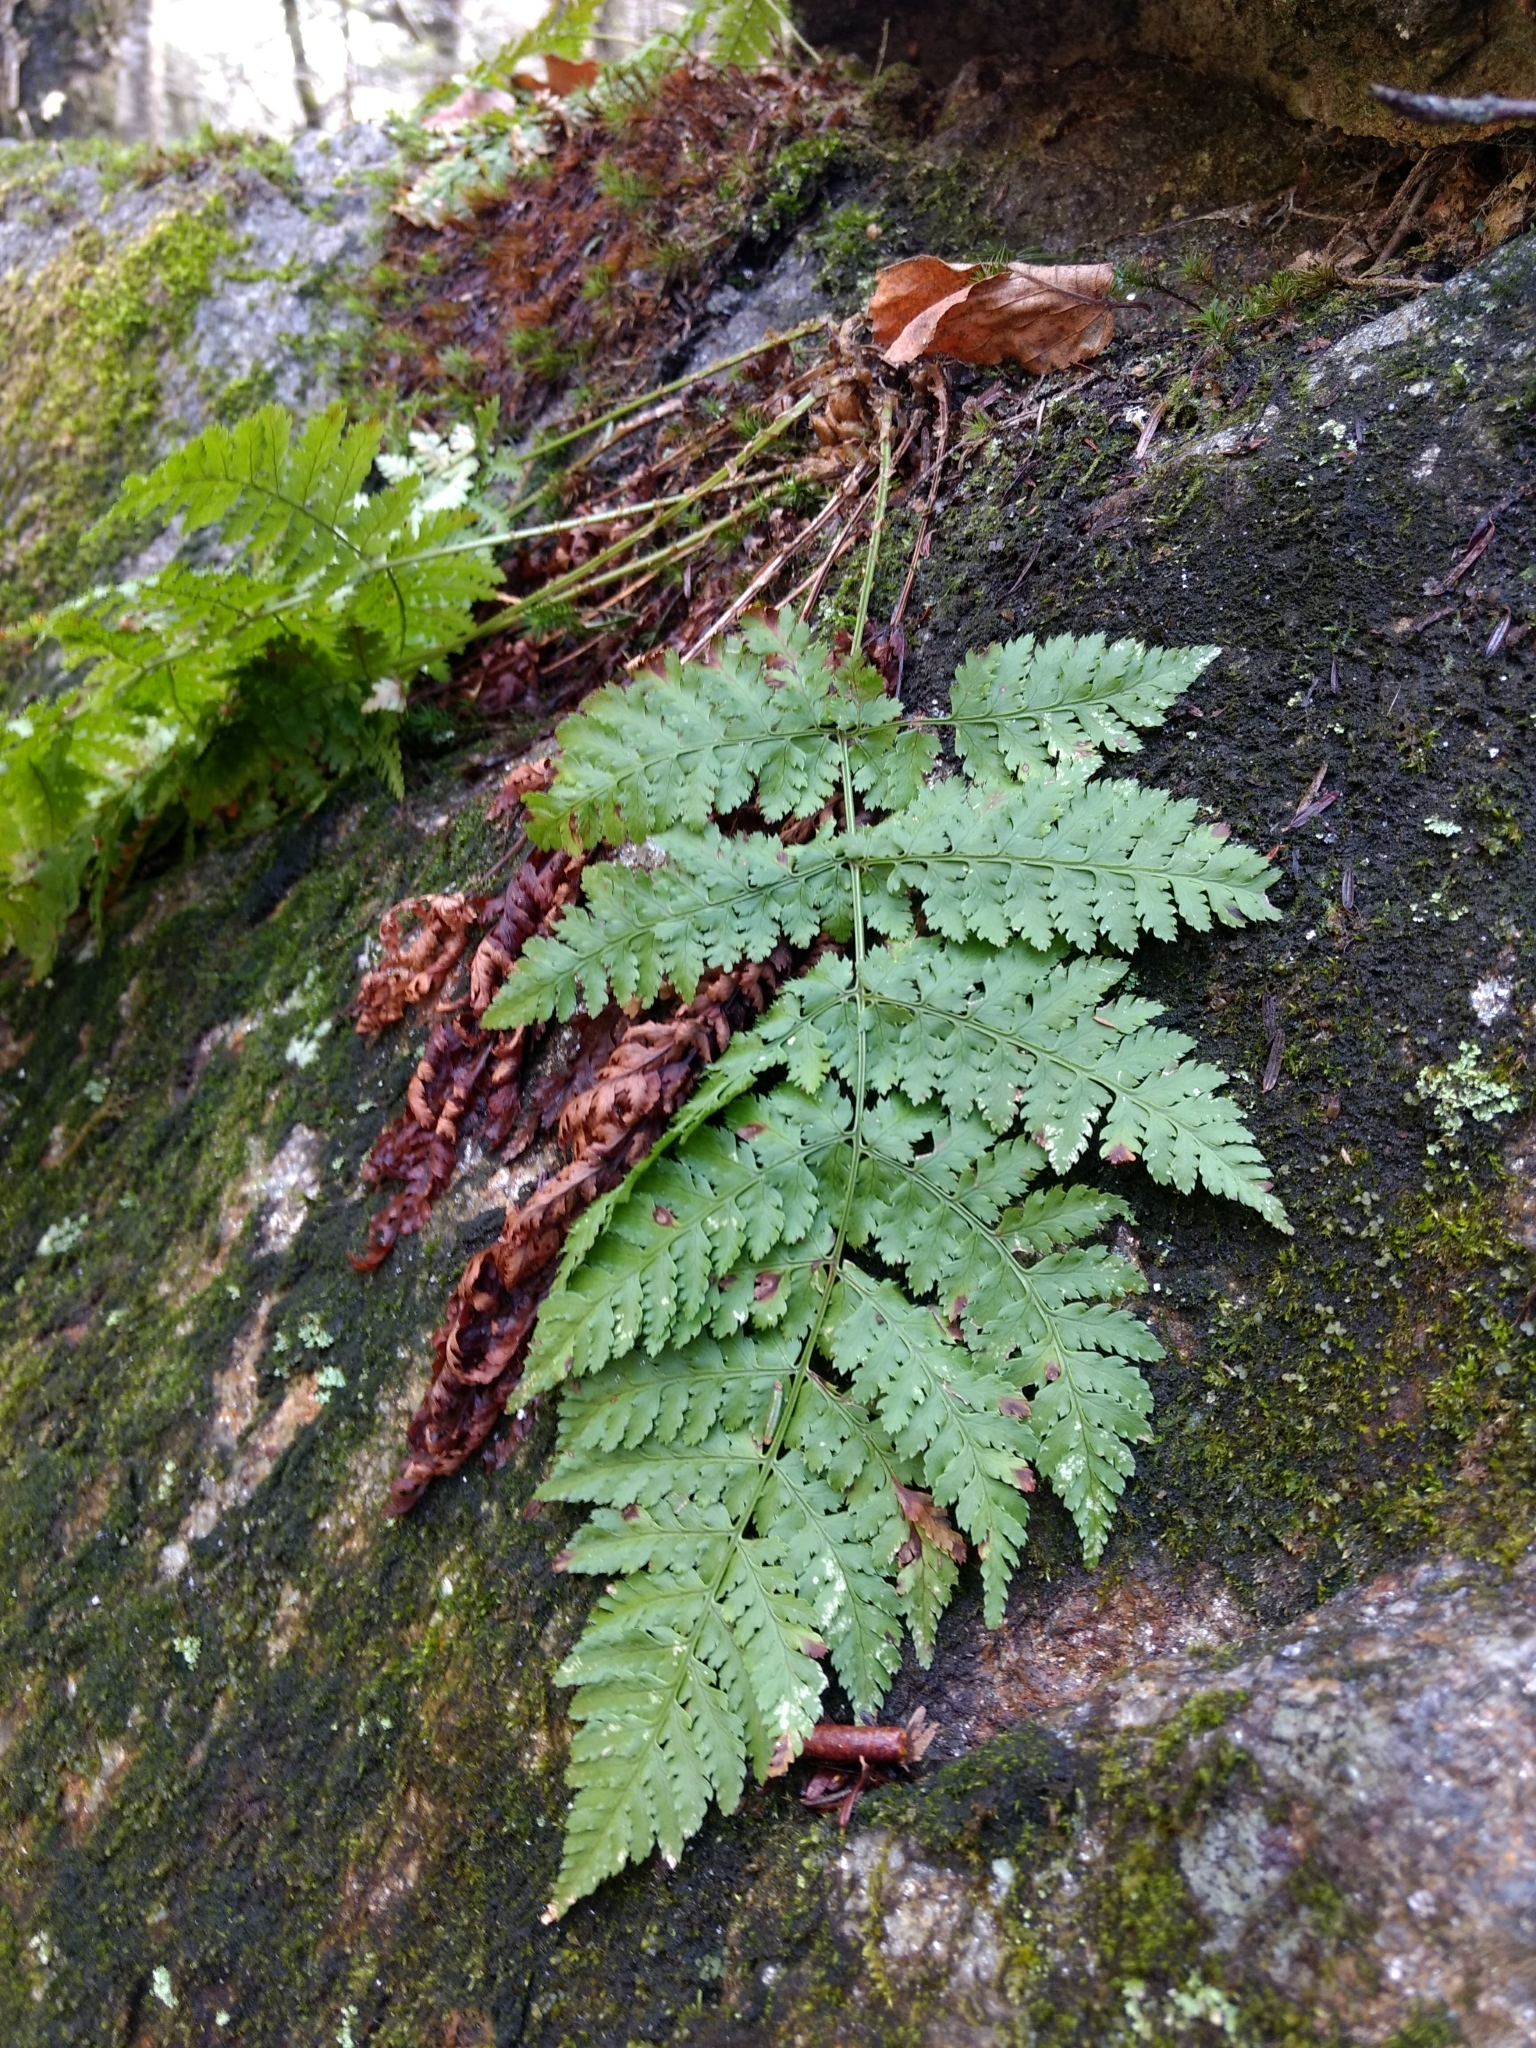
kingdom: Plantae
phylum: Tracheophyta
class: Polypodiopsida
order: Polypodiales
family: Dryopteridaceae
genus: Dryopteris
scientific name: Dryopteris intermedia
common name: Evergreen wood fern
